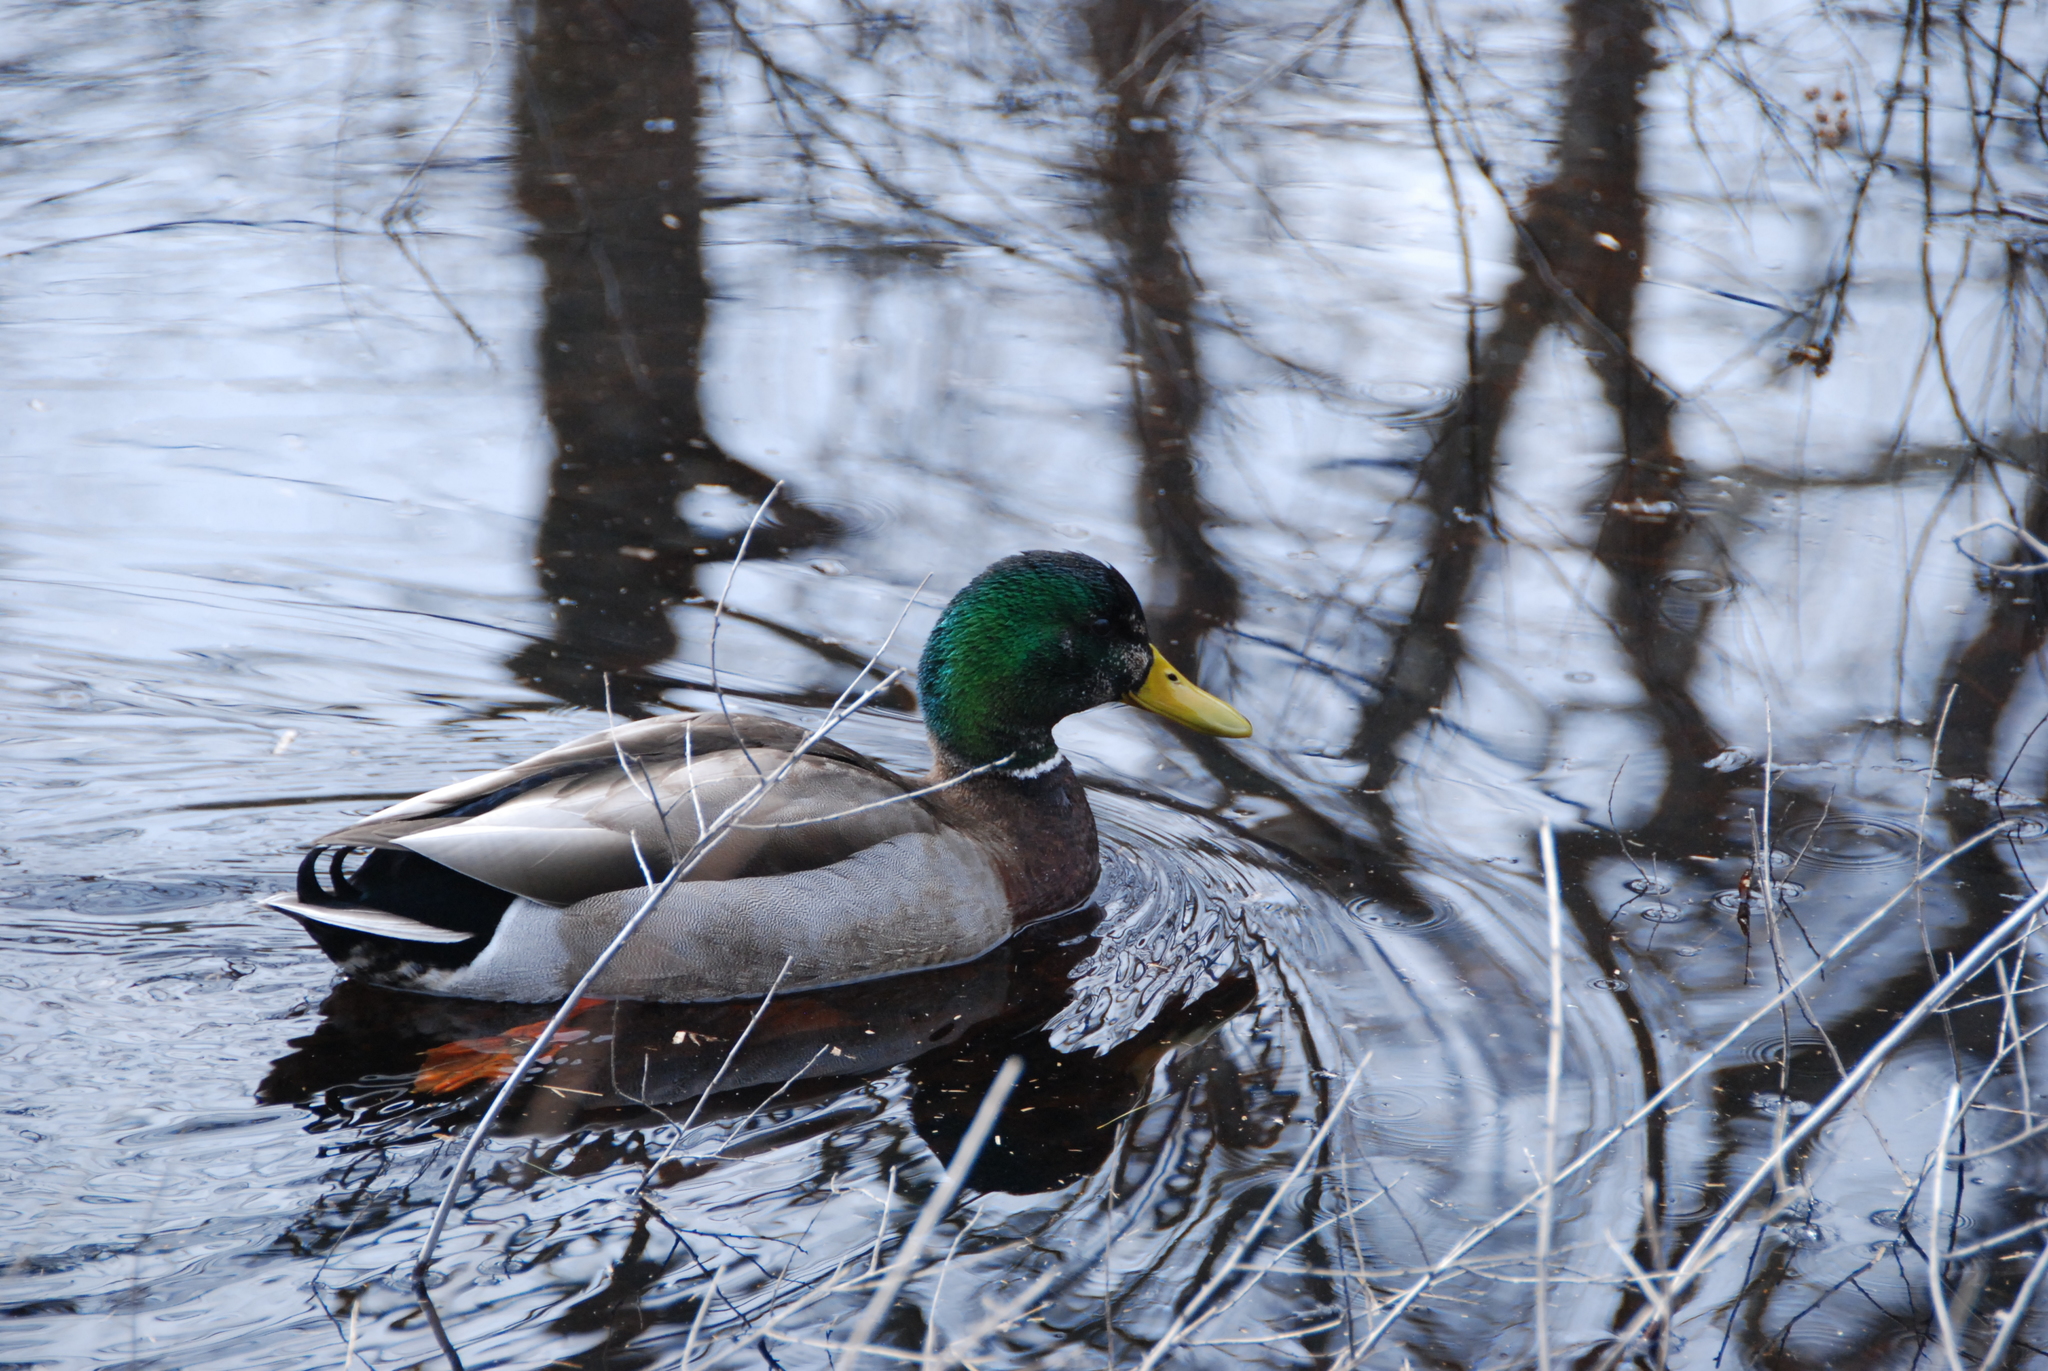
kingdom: Animalia
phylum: Chordata
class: Aves
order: Anseriformes
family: Anatidae
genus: Anas
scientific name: Anas platyrhynchos
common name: Mallard
